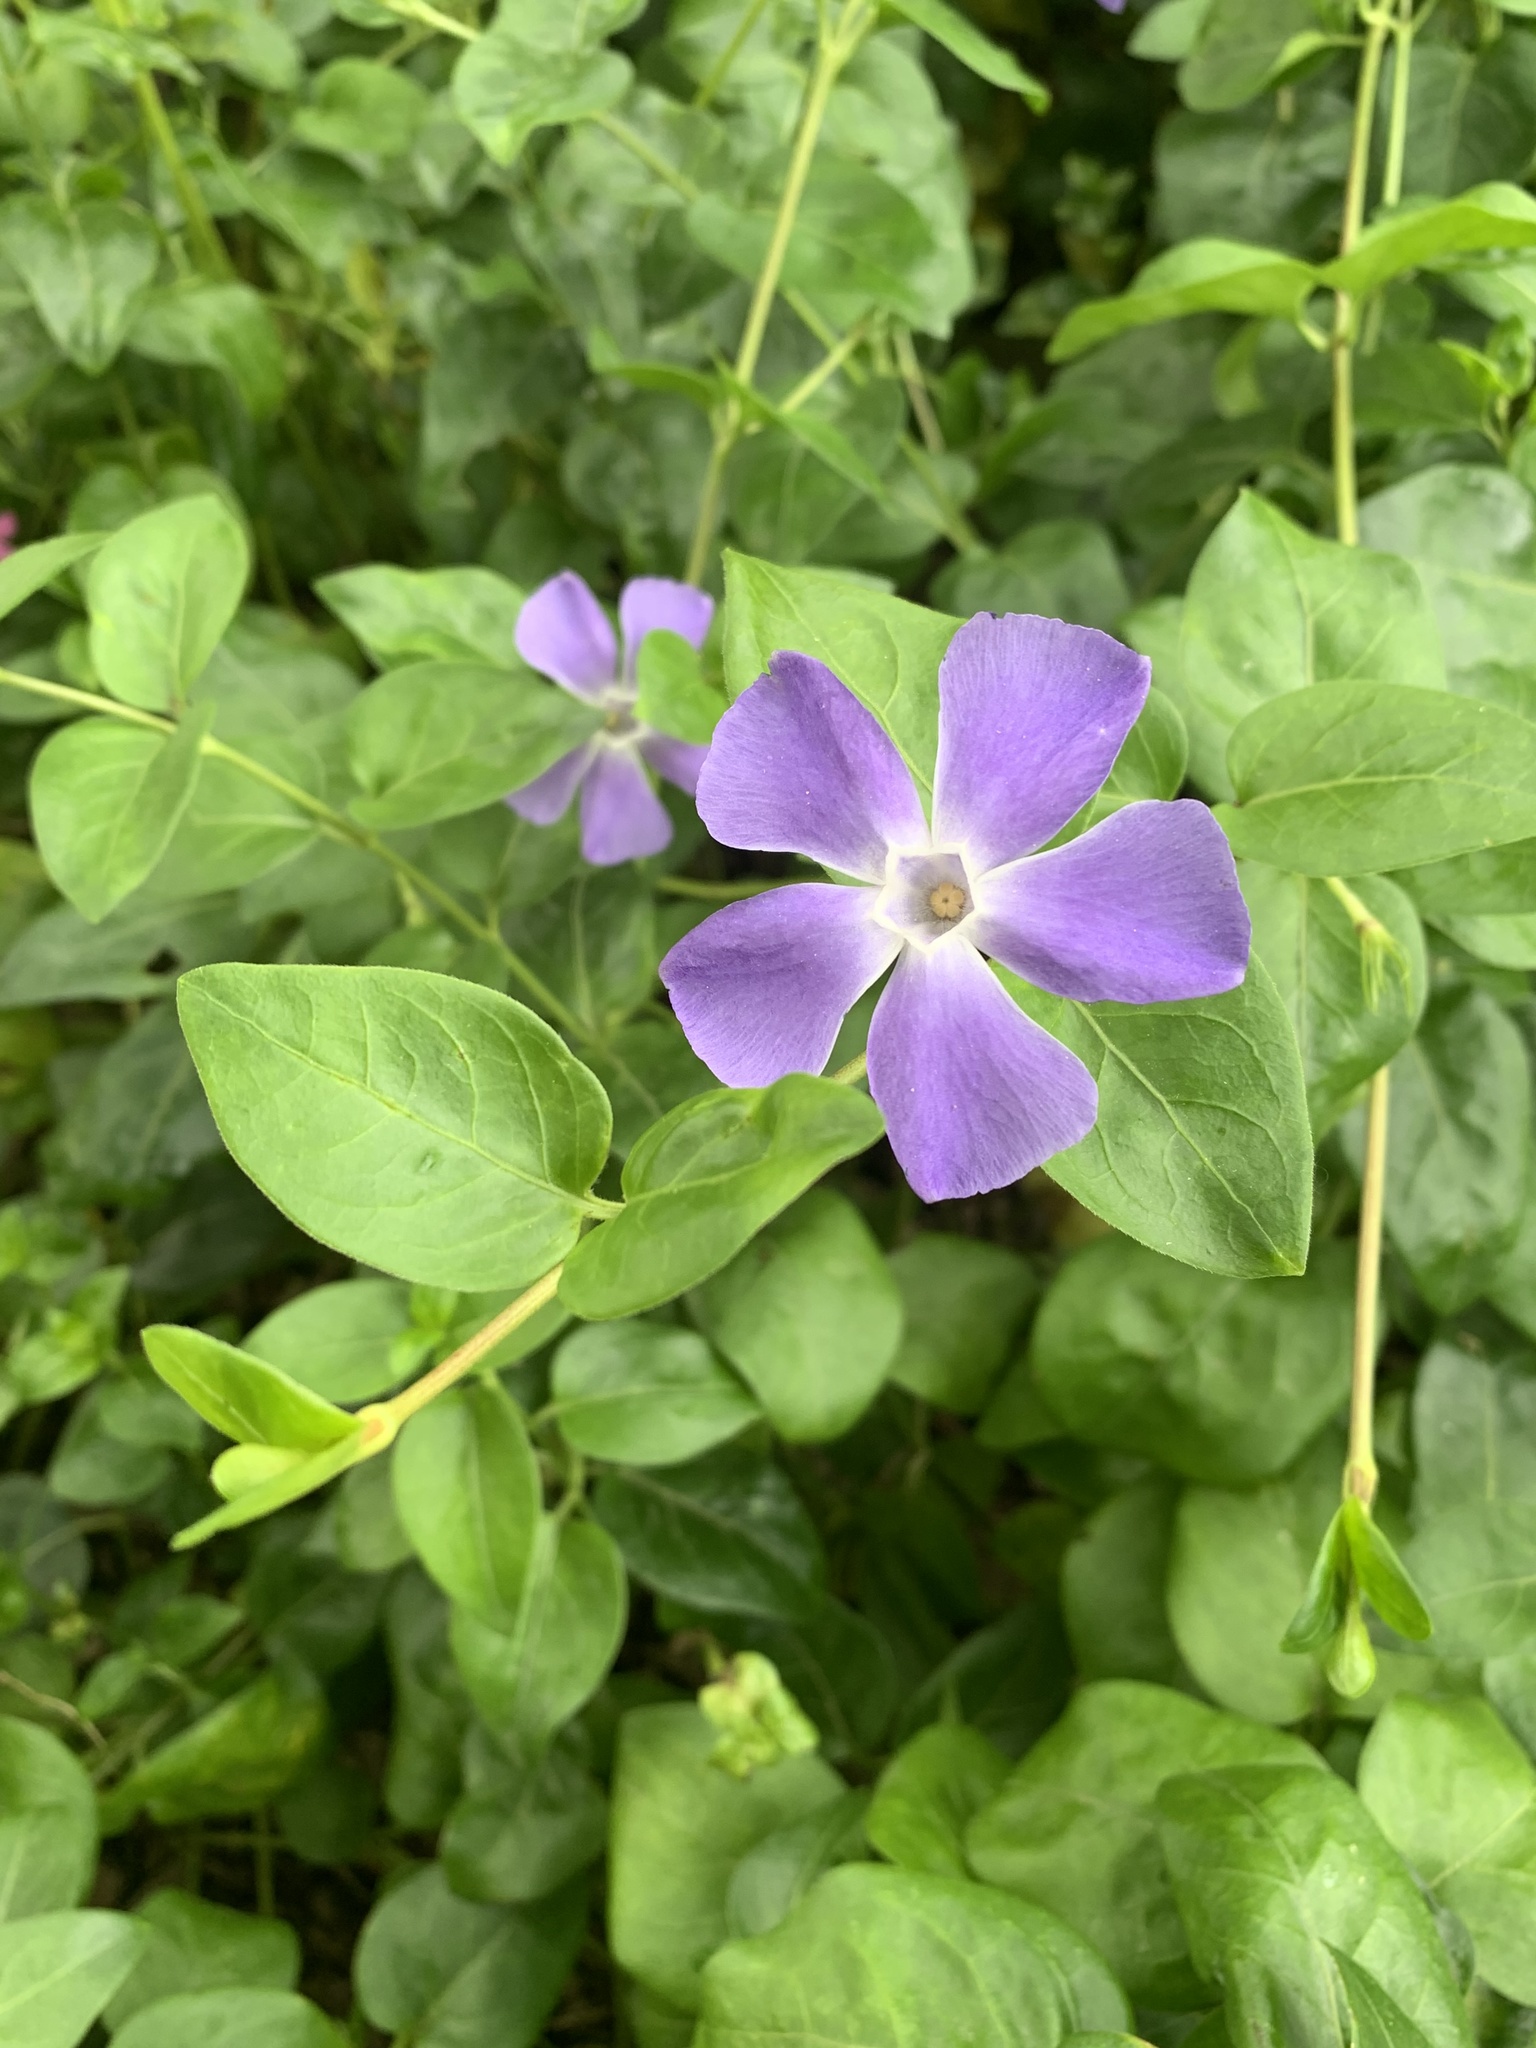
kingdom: Plantae
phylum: Tracheophyta
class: Magnoliopsida
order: Gentianales
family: Apocynaceae
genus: Vinca
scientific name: Vinca major
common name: Greater periwinkle
